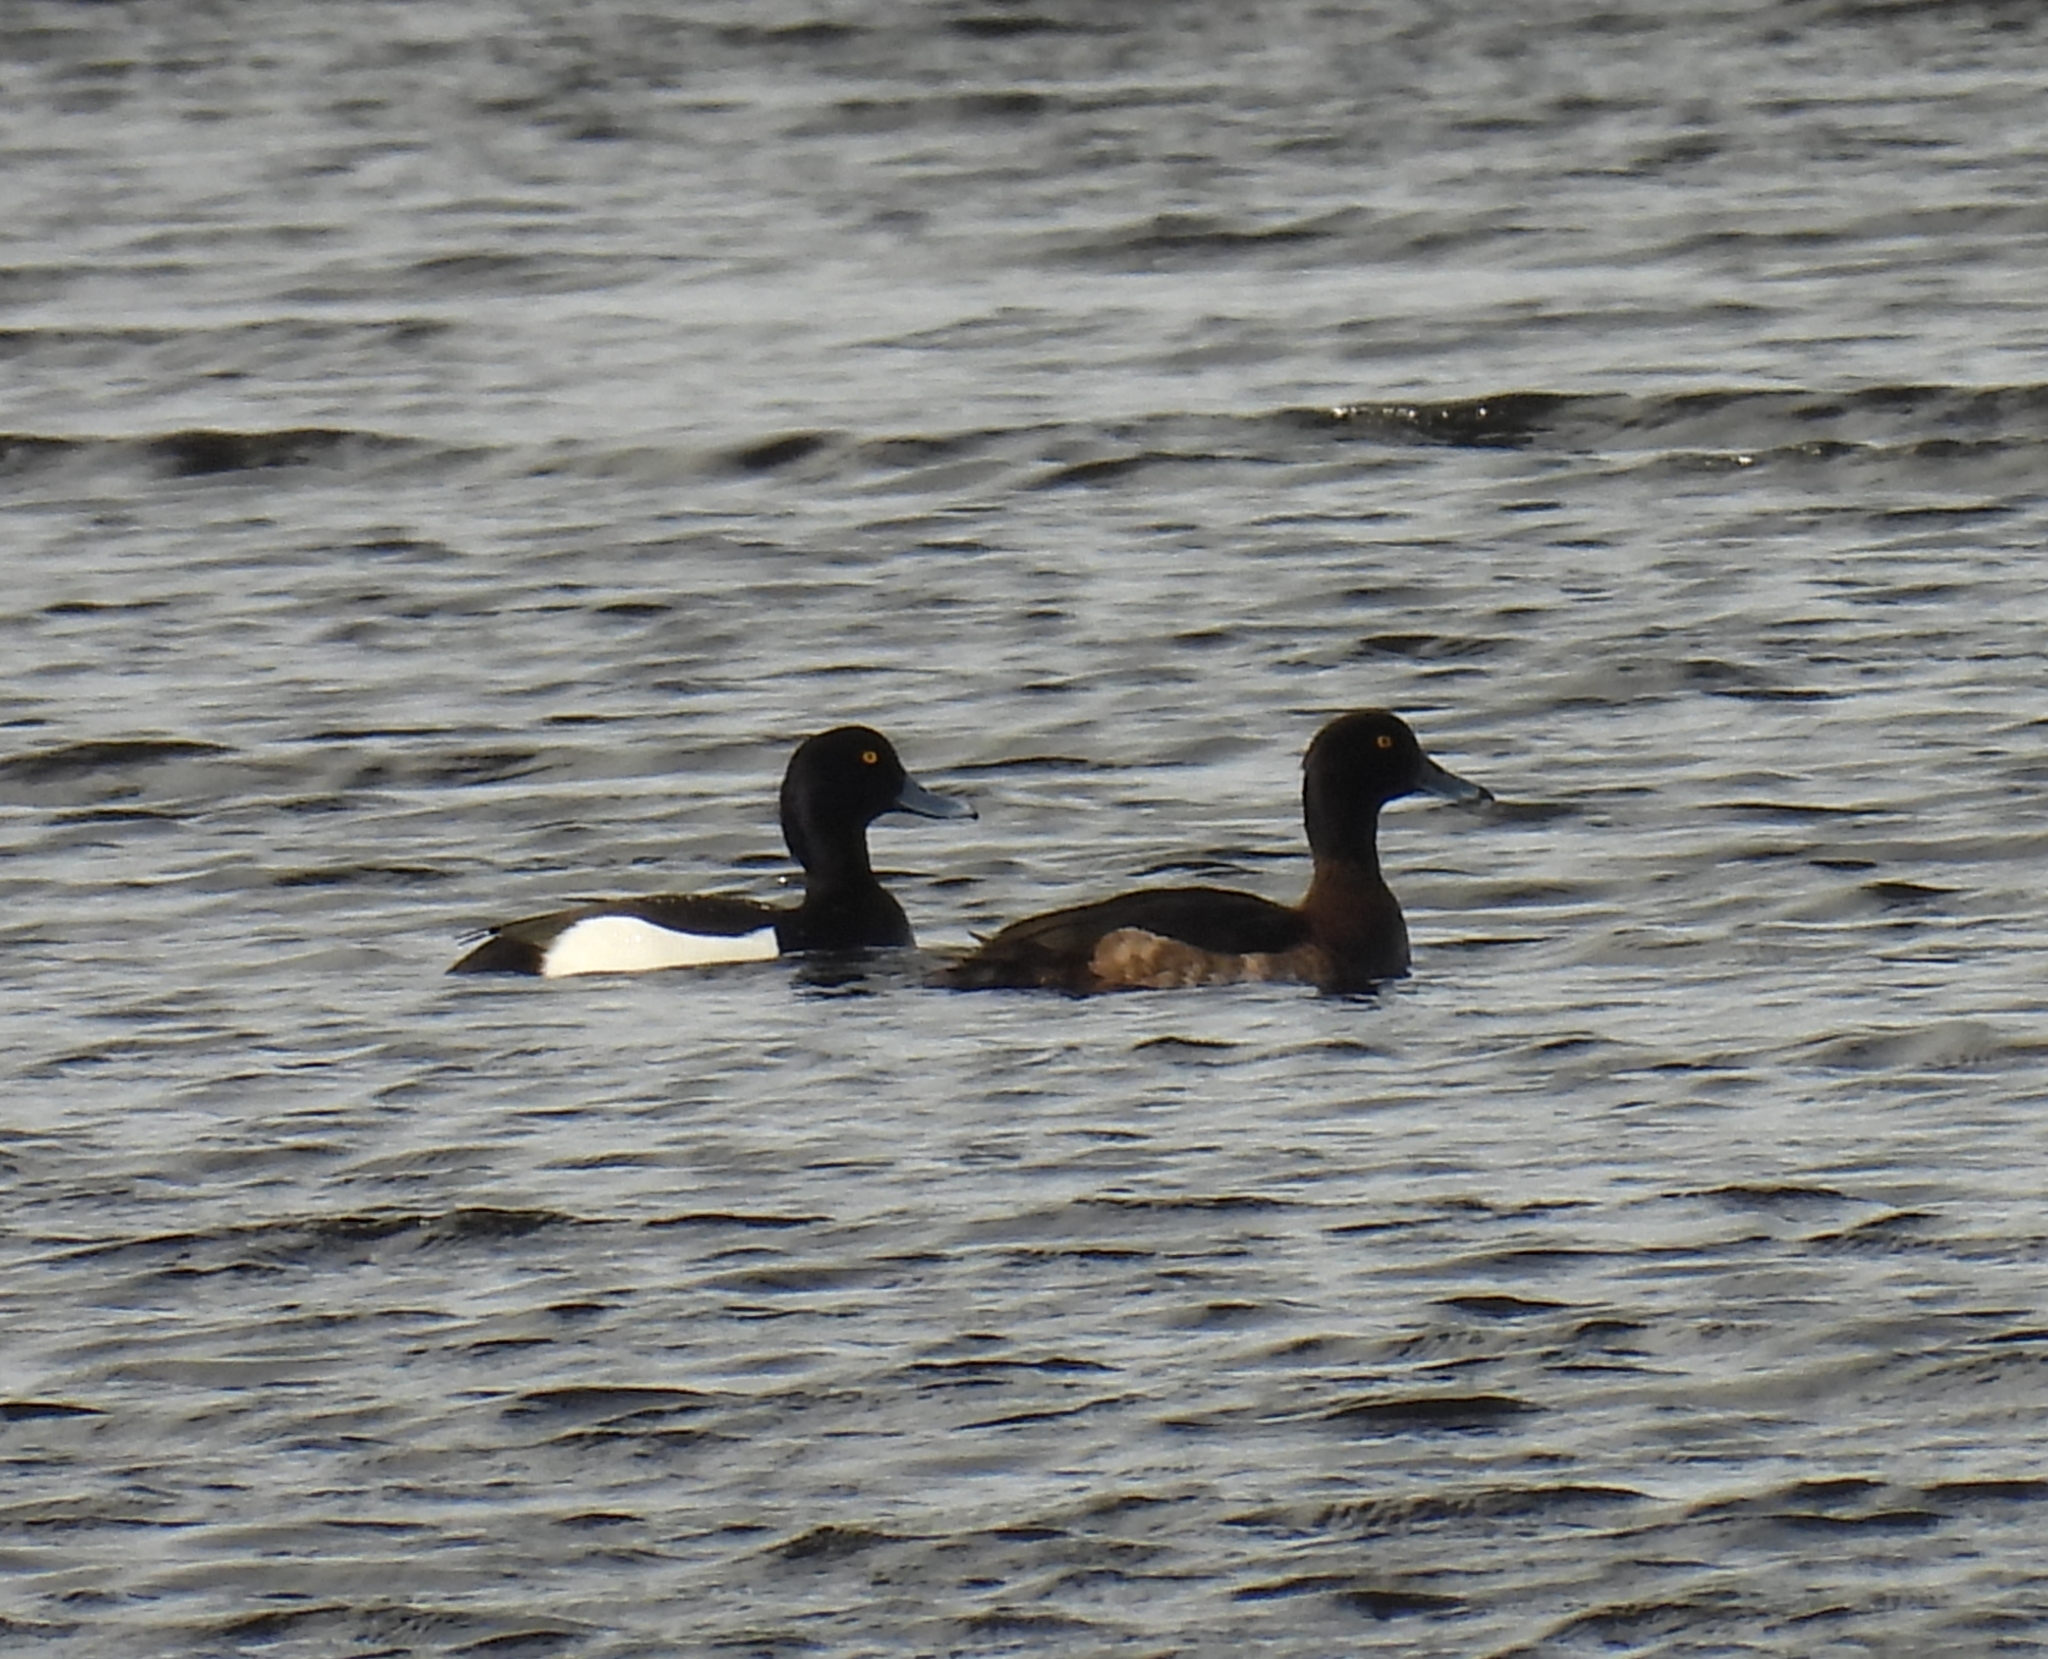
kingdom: Animalia
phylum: Chordata
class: Aves
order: Anseriformes
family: Anatidae
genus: Aythya
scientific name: Aythya fuligula
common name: Tufted duck
